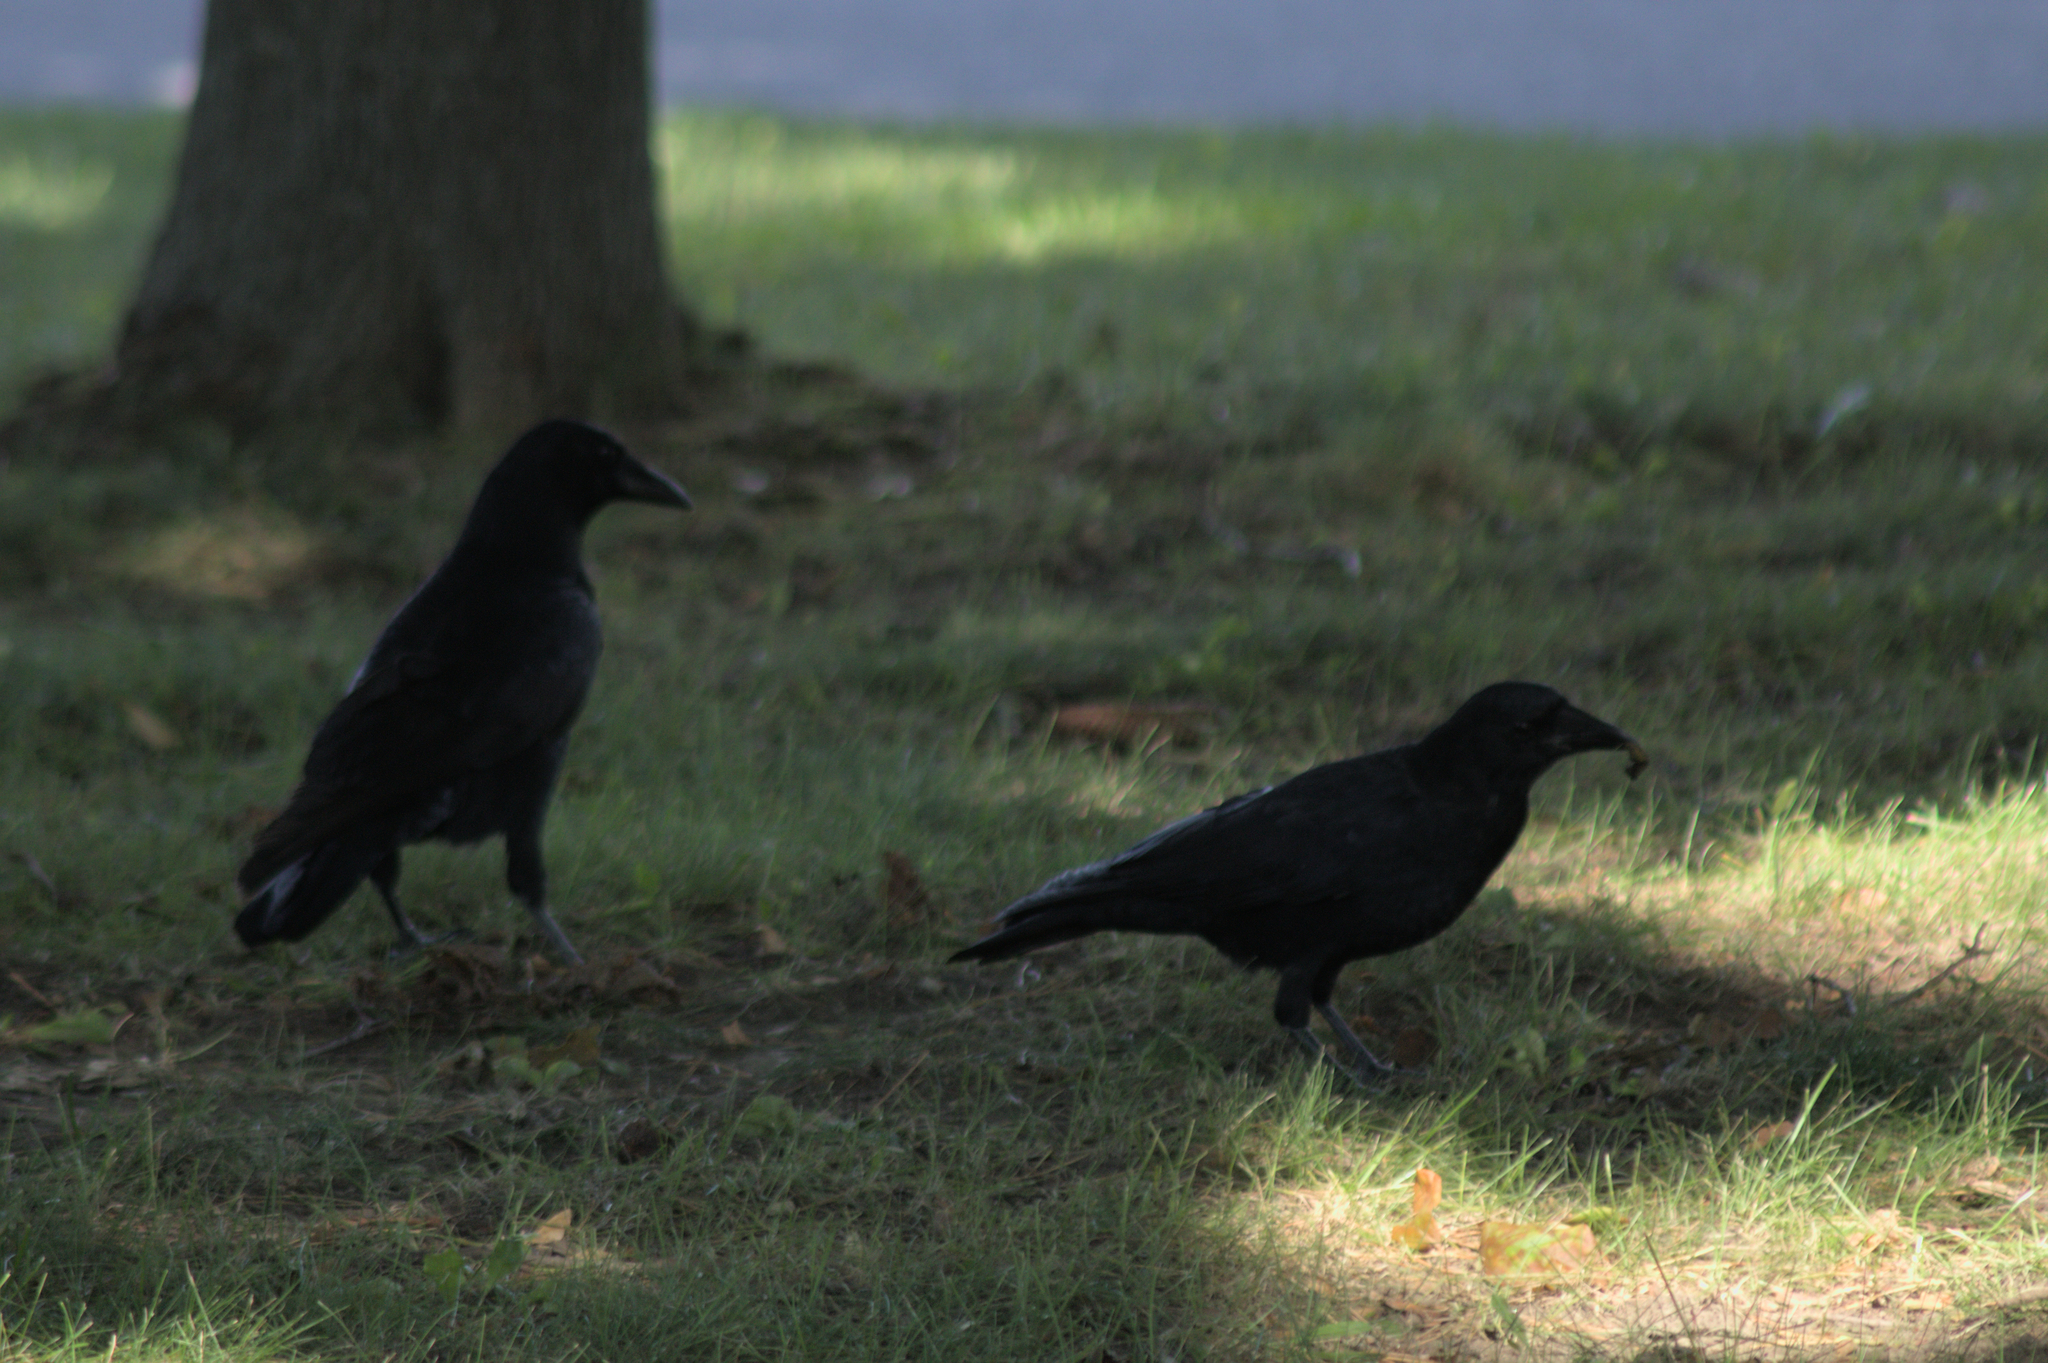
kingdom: Animalia
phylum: Chordata
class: Aves
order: Passeriformes
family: Corvidae
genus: Corvus
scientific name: Corvus brachyrhynchos
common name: American crow
